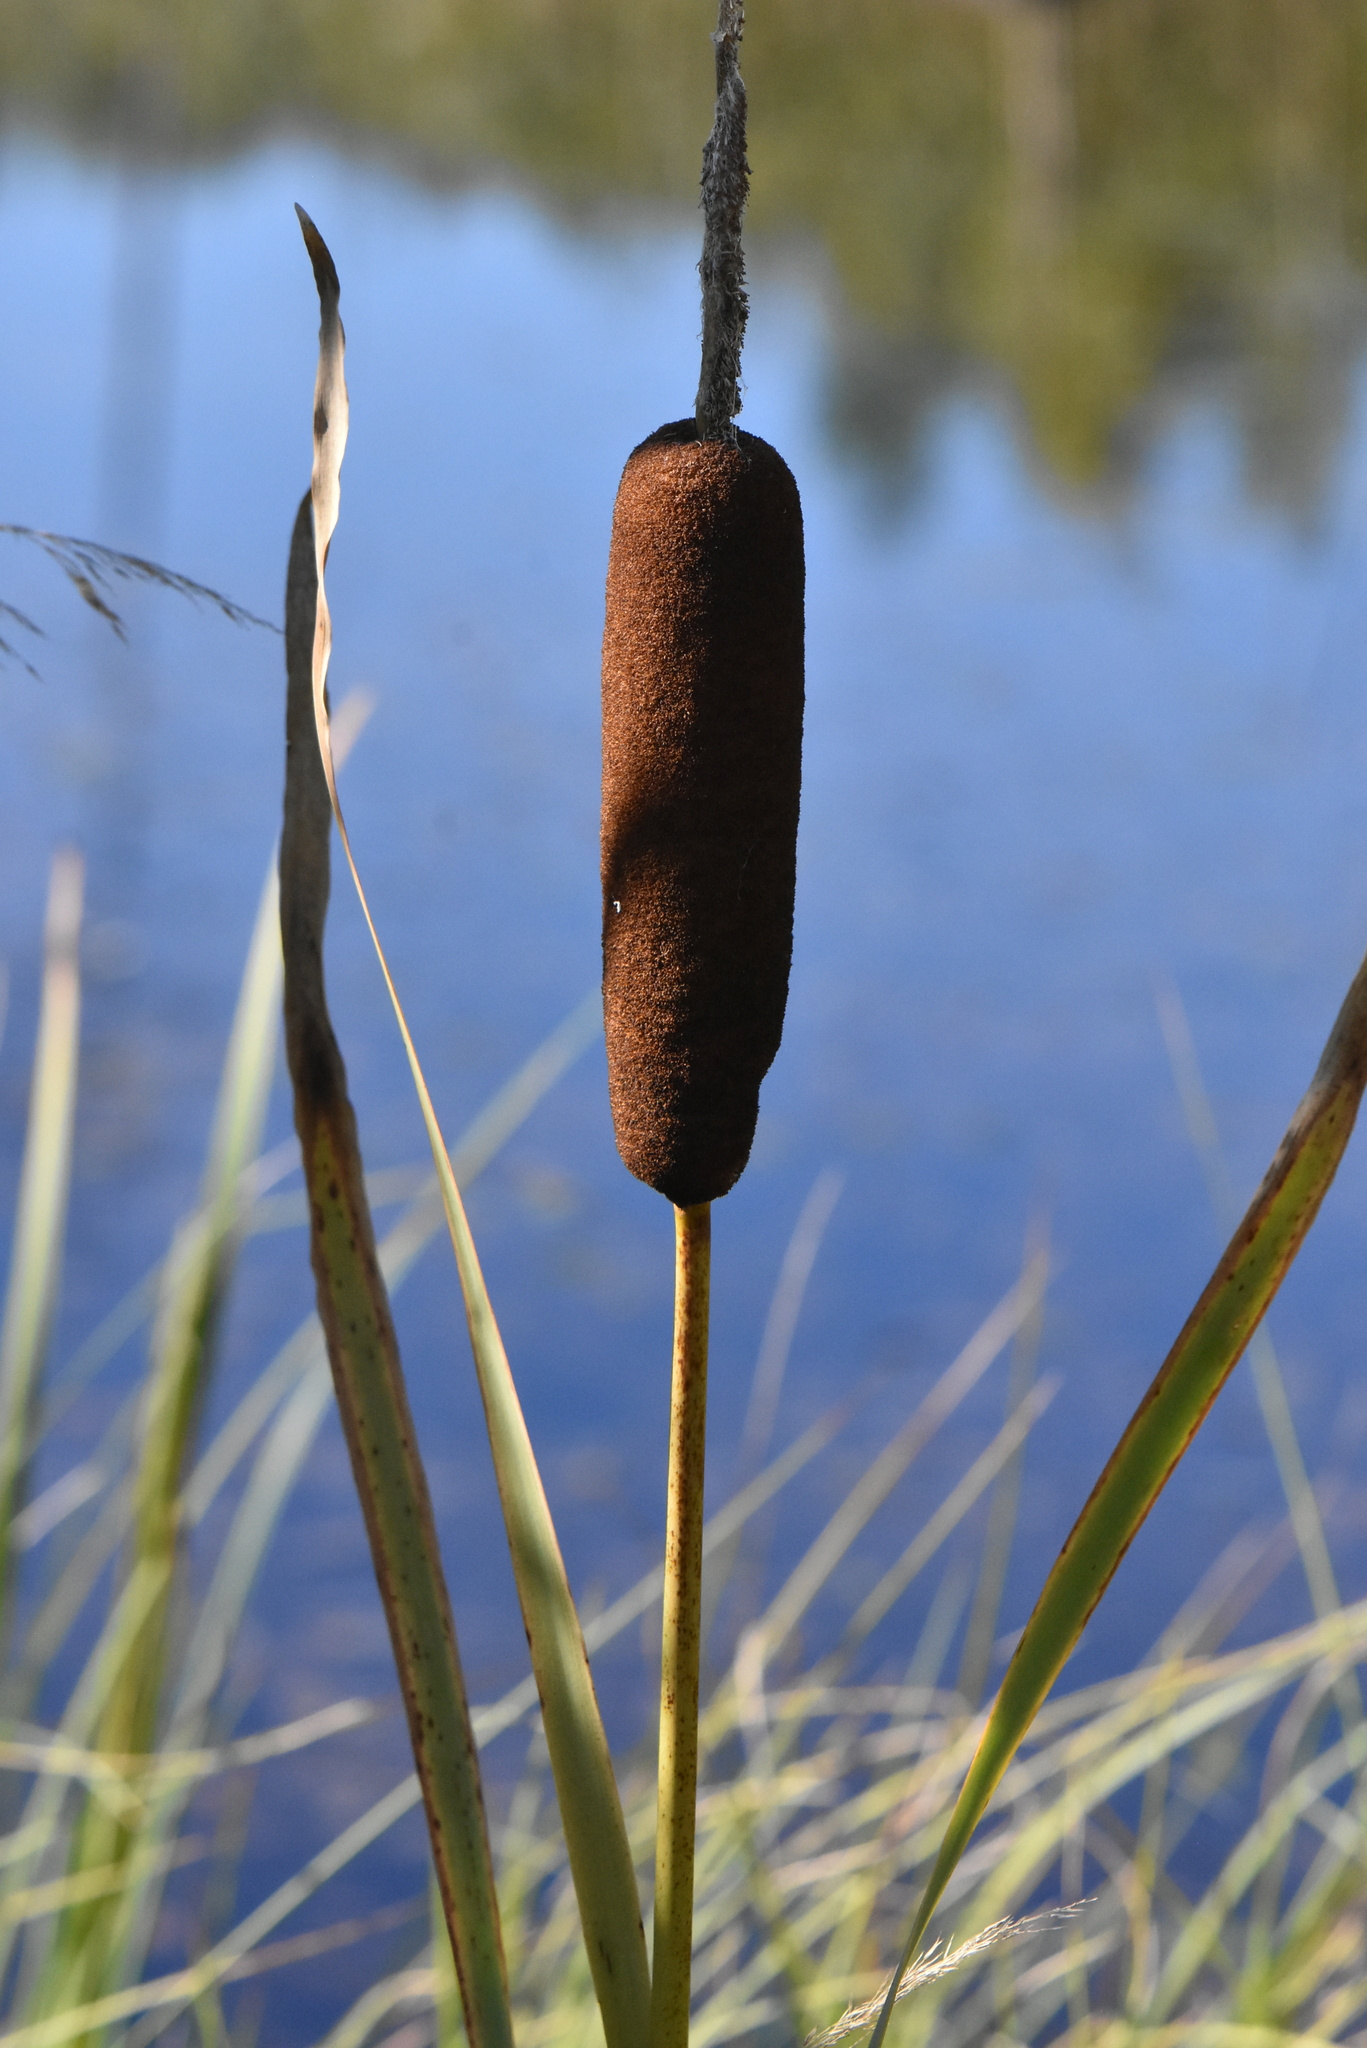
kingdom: Plantae
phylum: Tracheophyta
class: Liliopsida
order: Poales
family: Typhaceae
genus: Typha
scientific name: Typha latifolia
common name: Broadleaf cattail
